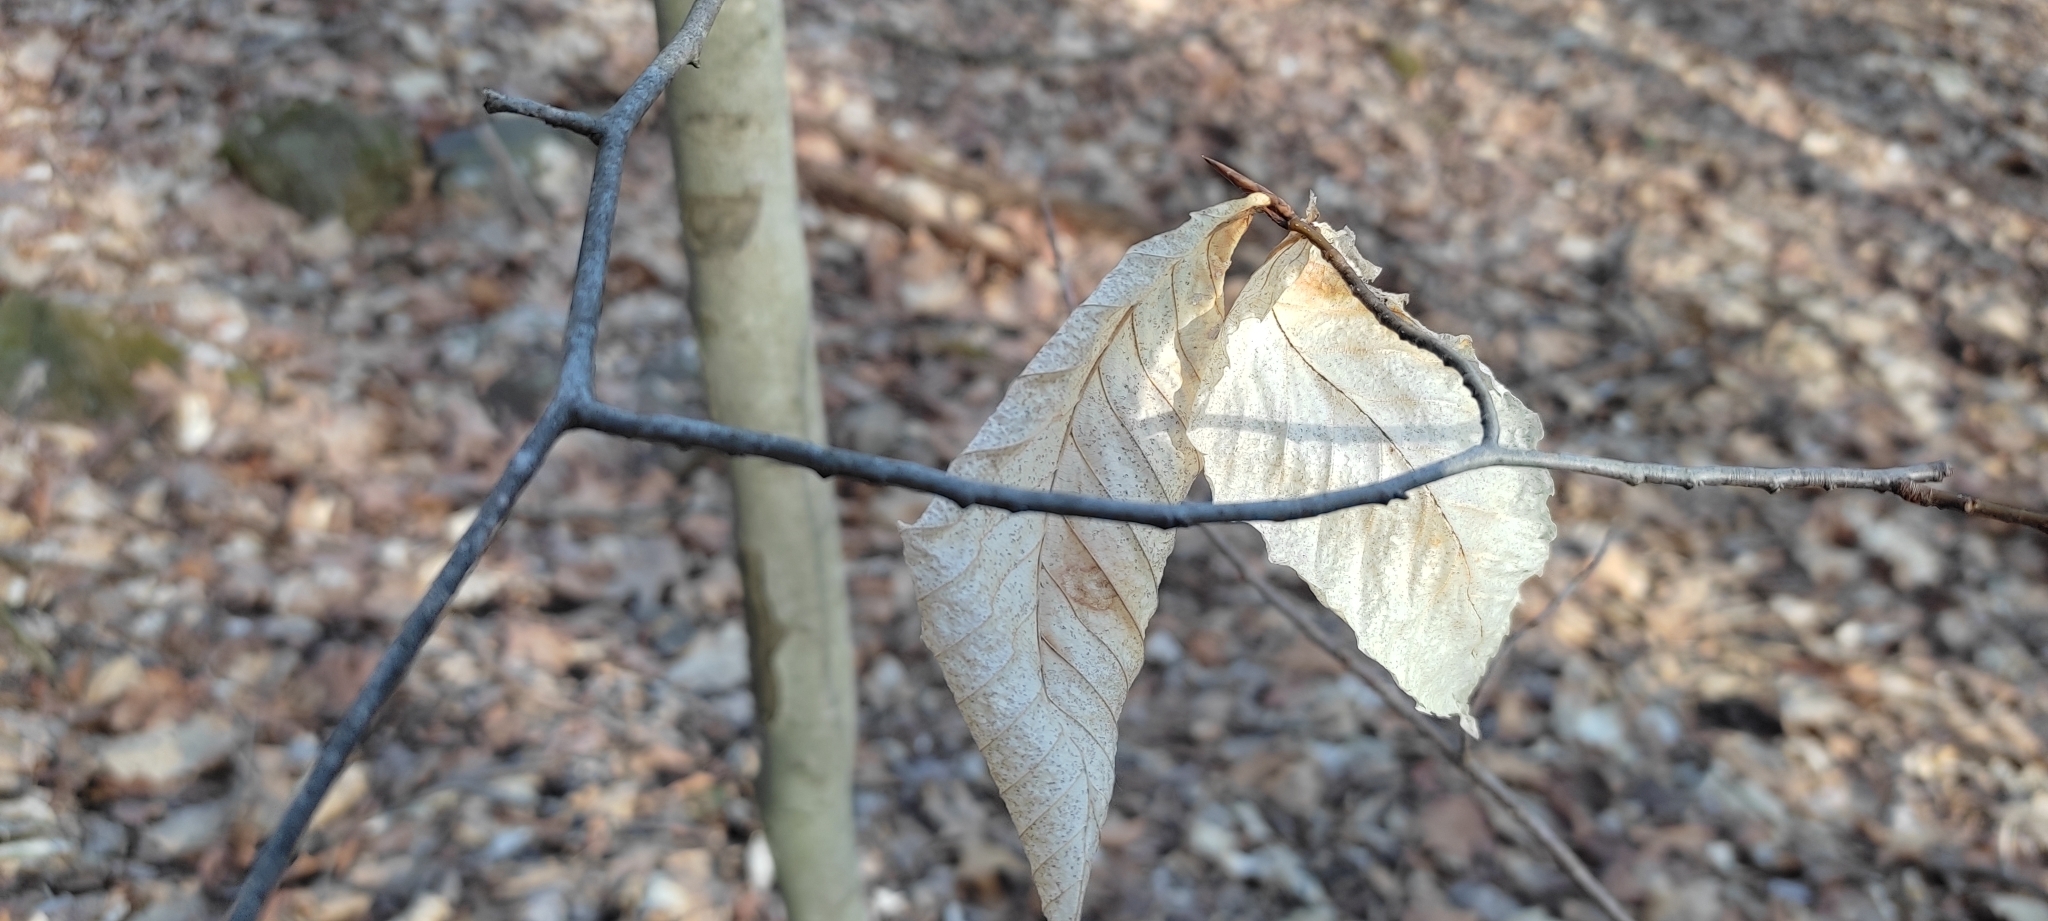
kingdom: Plantae
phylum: Tracheophyta
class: Magnoliopsida
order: Fagales
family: Fagaceae
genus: Fagus
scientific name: Fagus grandifolia
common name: American beech
